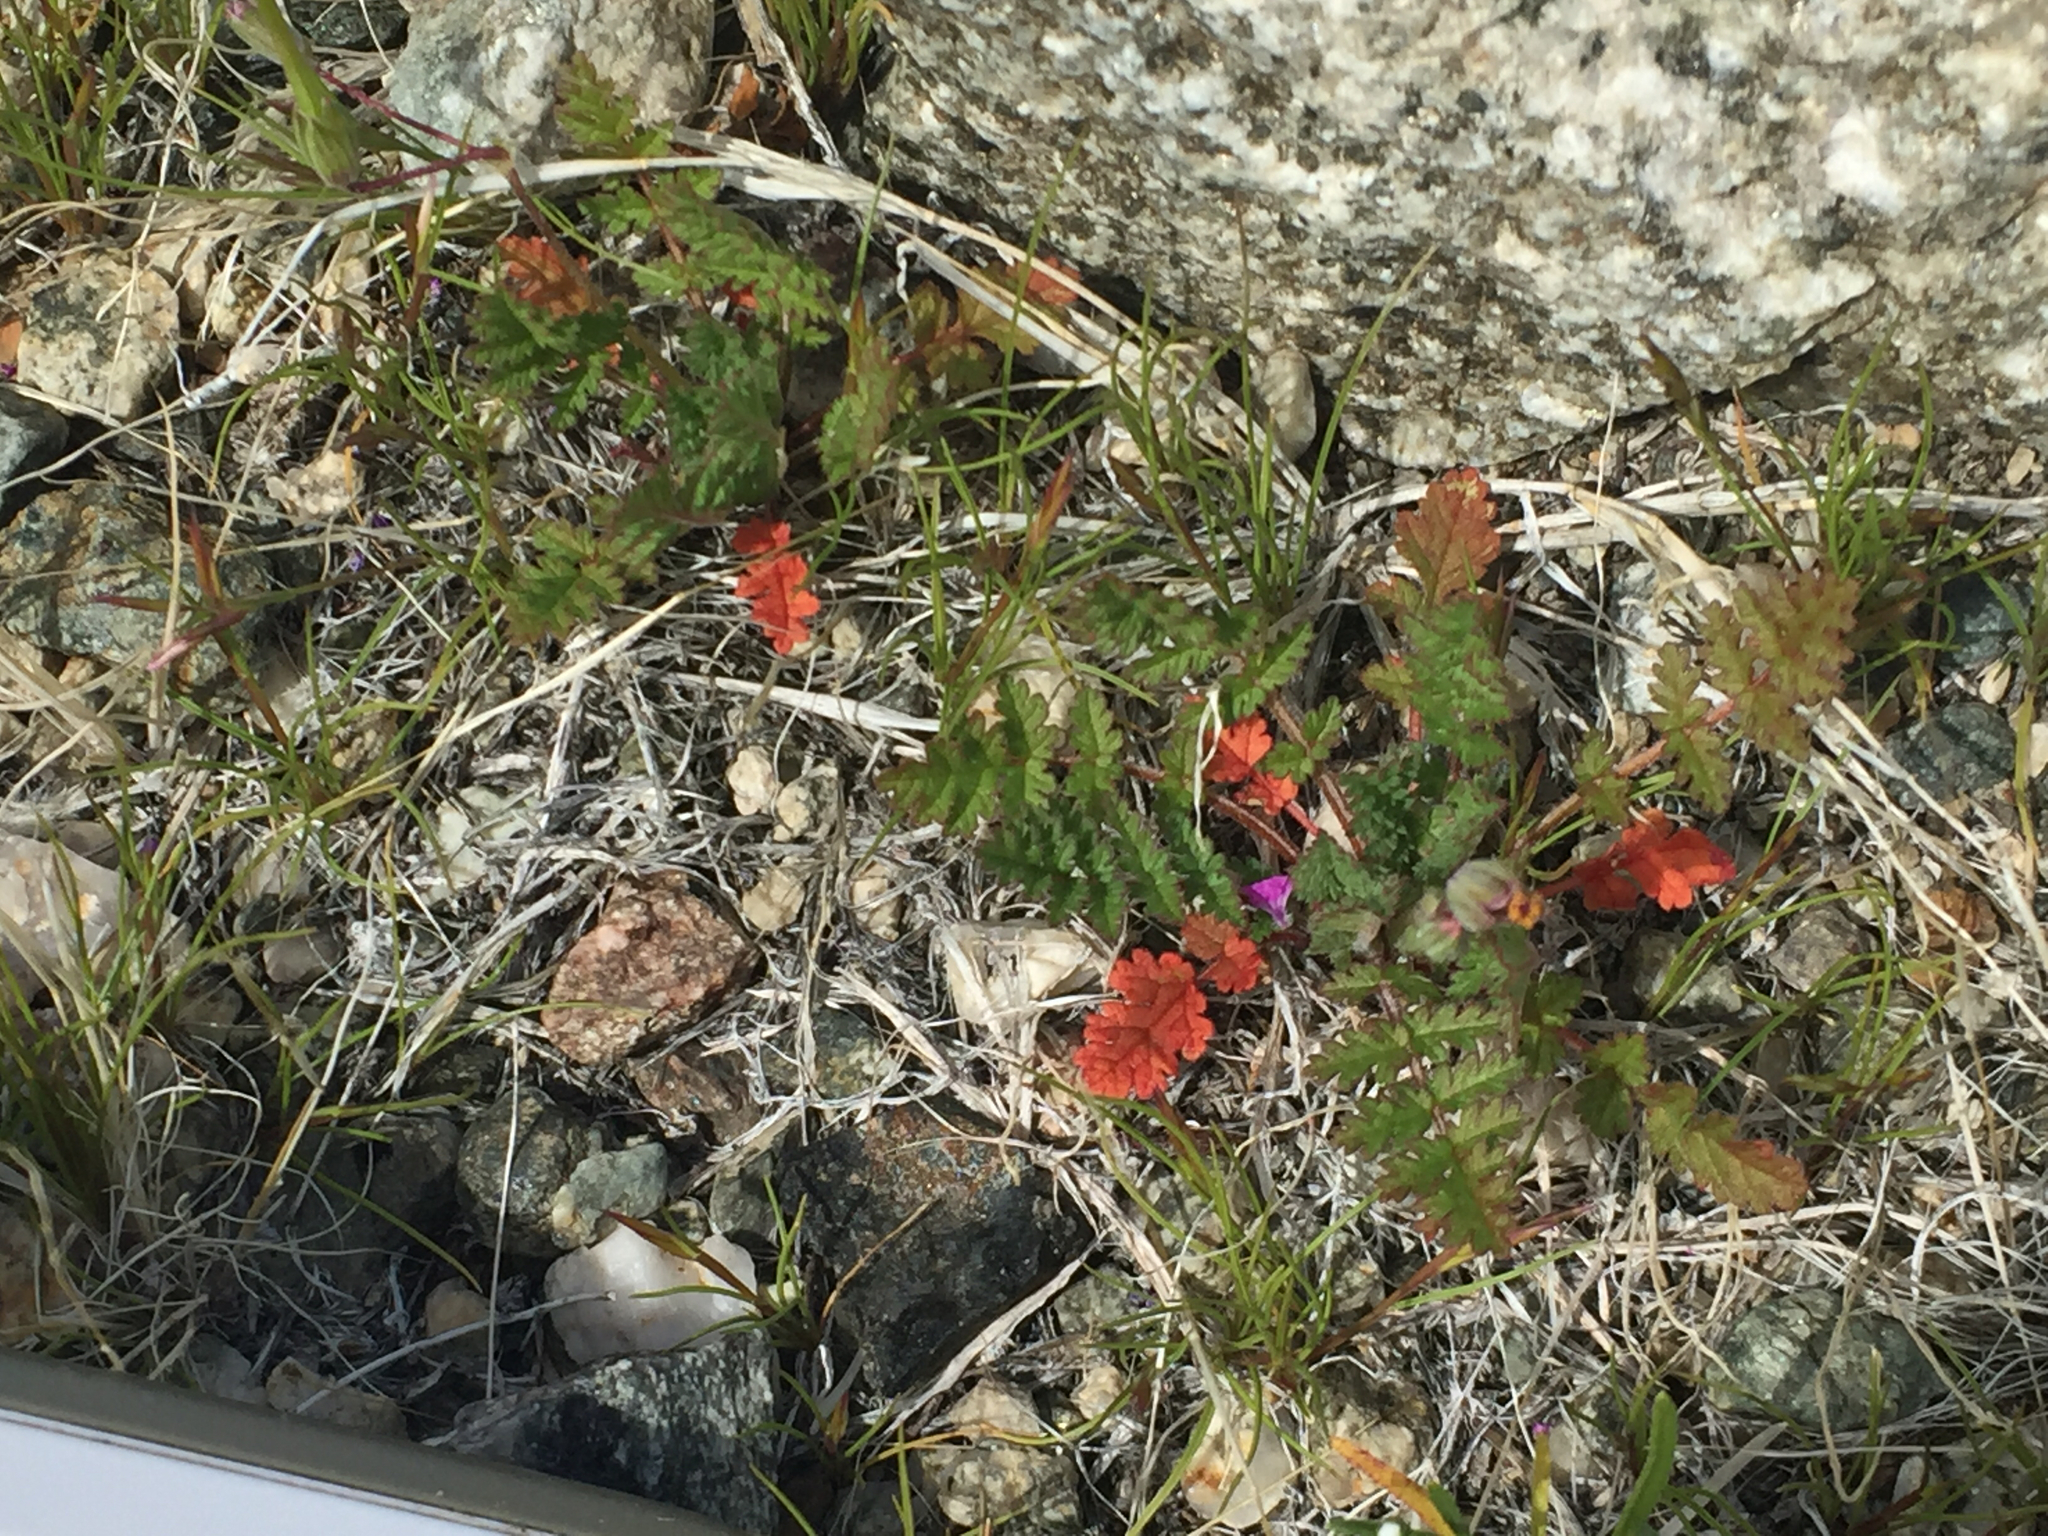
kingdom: Plantae
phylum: Tracheophyta
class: Magnoliopsida
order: Geraniales
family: Geraniaceae
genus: Erodium
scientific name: Erodium cicutarium
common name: Common stork's-bill
